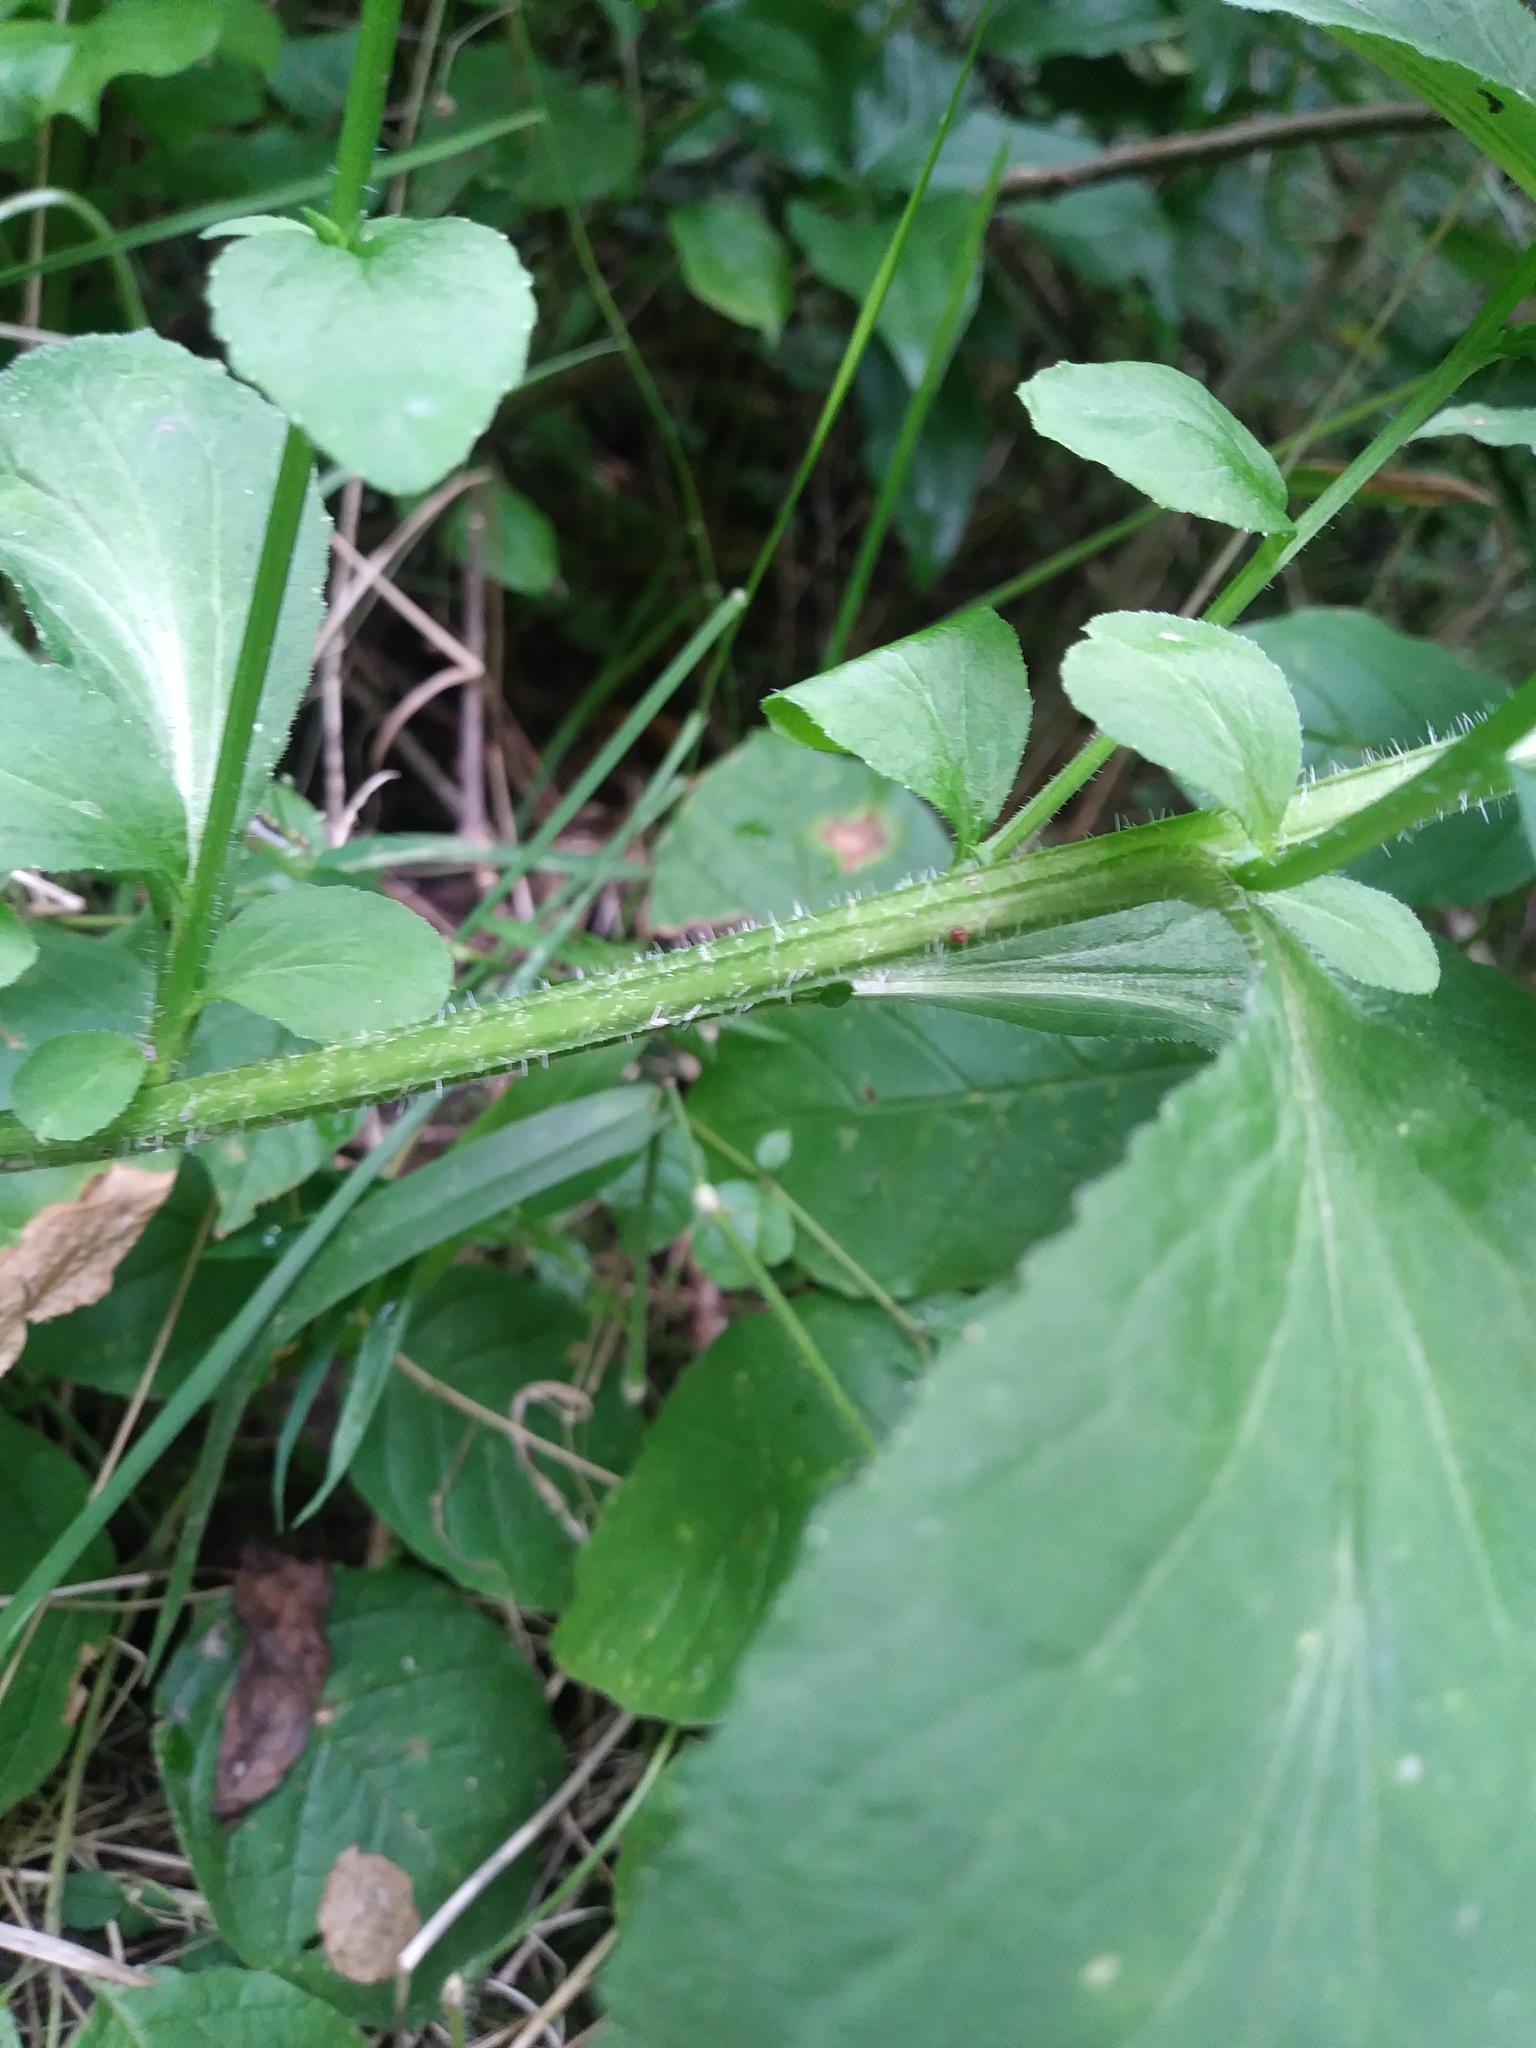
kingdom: Plantae
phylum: Tracheophyta
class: Magnoliopsida
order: Asterales
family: Campanulaceae
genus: Lobelia
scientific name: Lobelia inflata
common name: Indian tobacco
